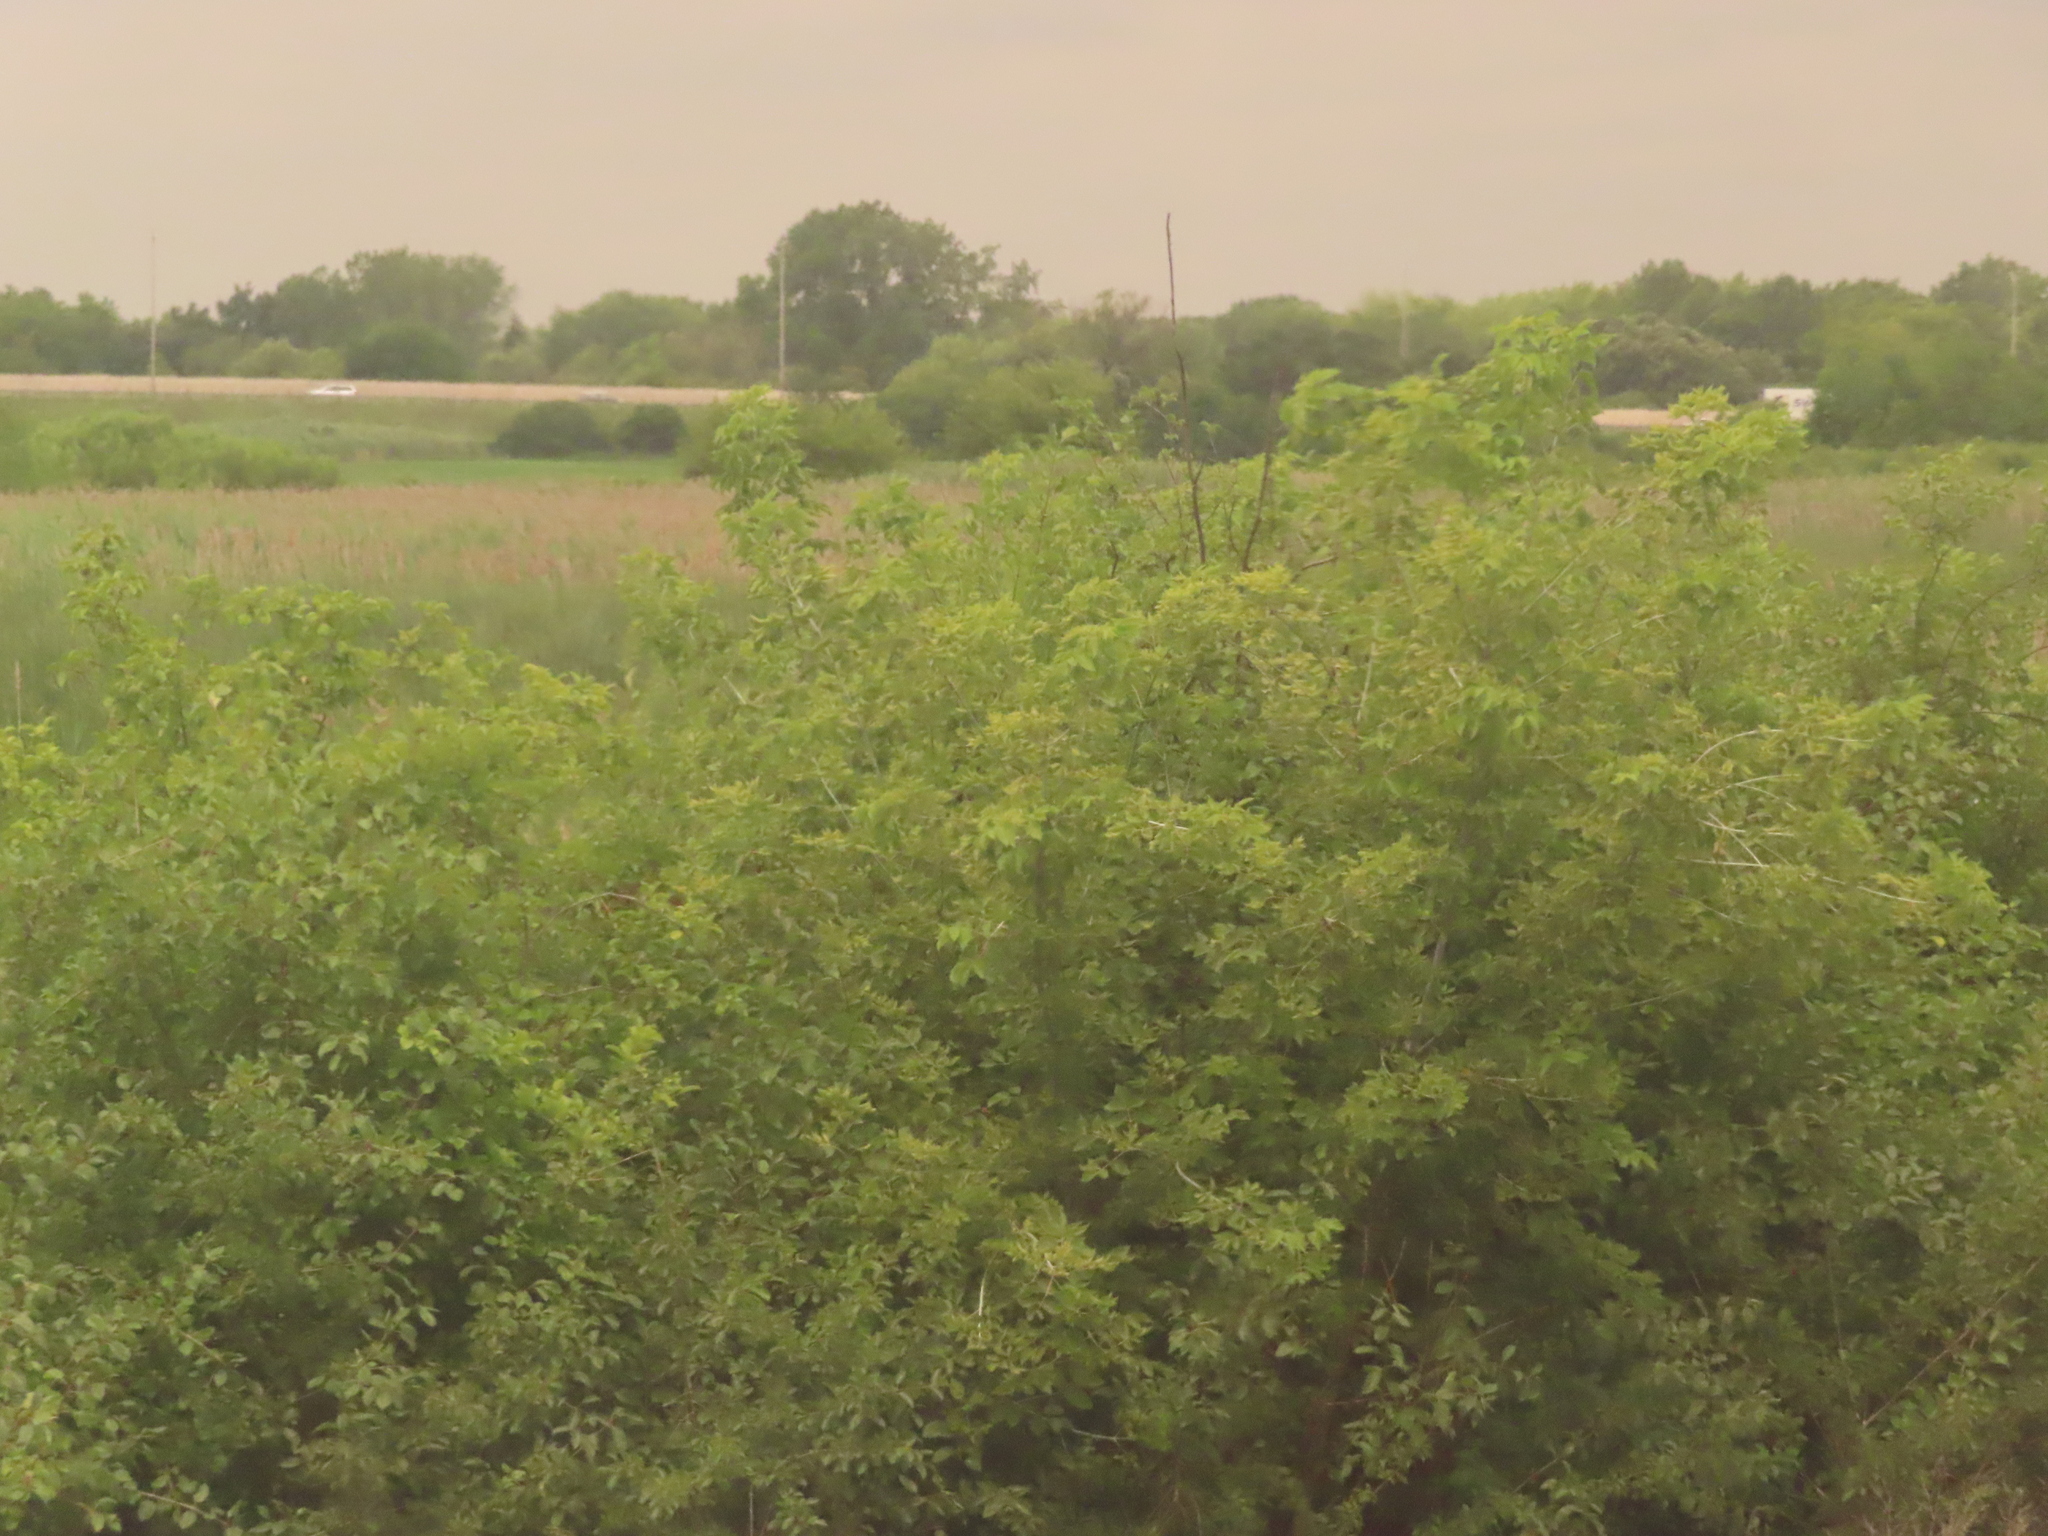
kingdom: Plantae
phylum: Tracheophyta
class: Magnoliopsida
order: Sapindales
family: Sapindaceae
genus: Acer
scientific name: Acer negundo
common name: Ashleaf maple
